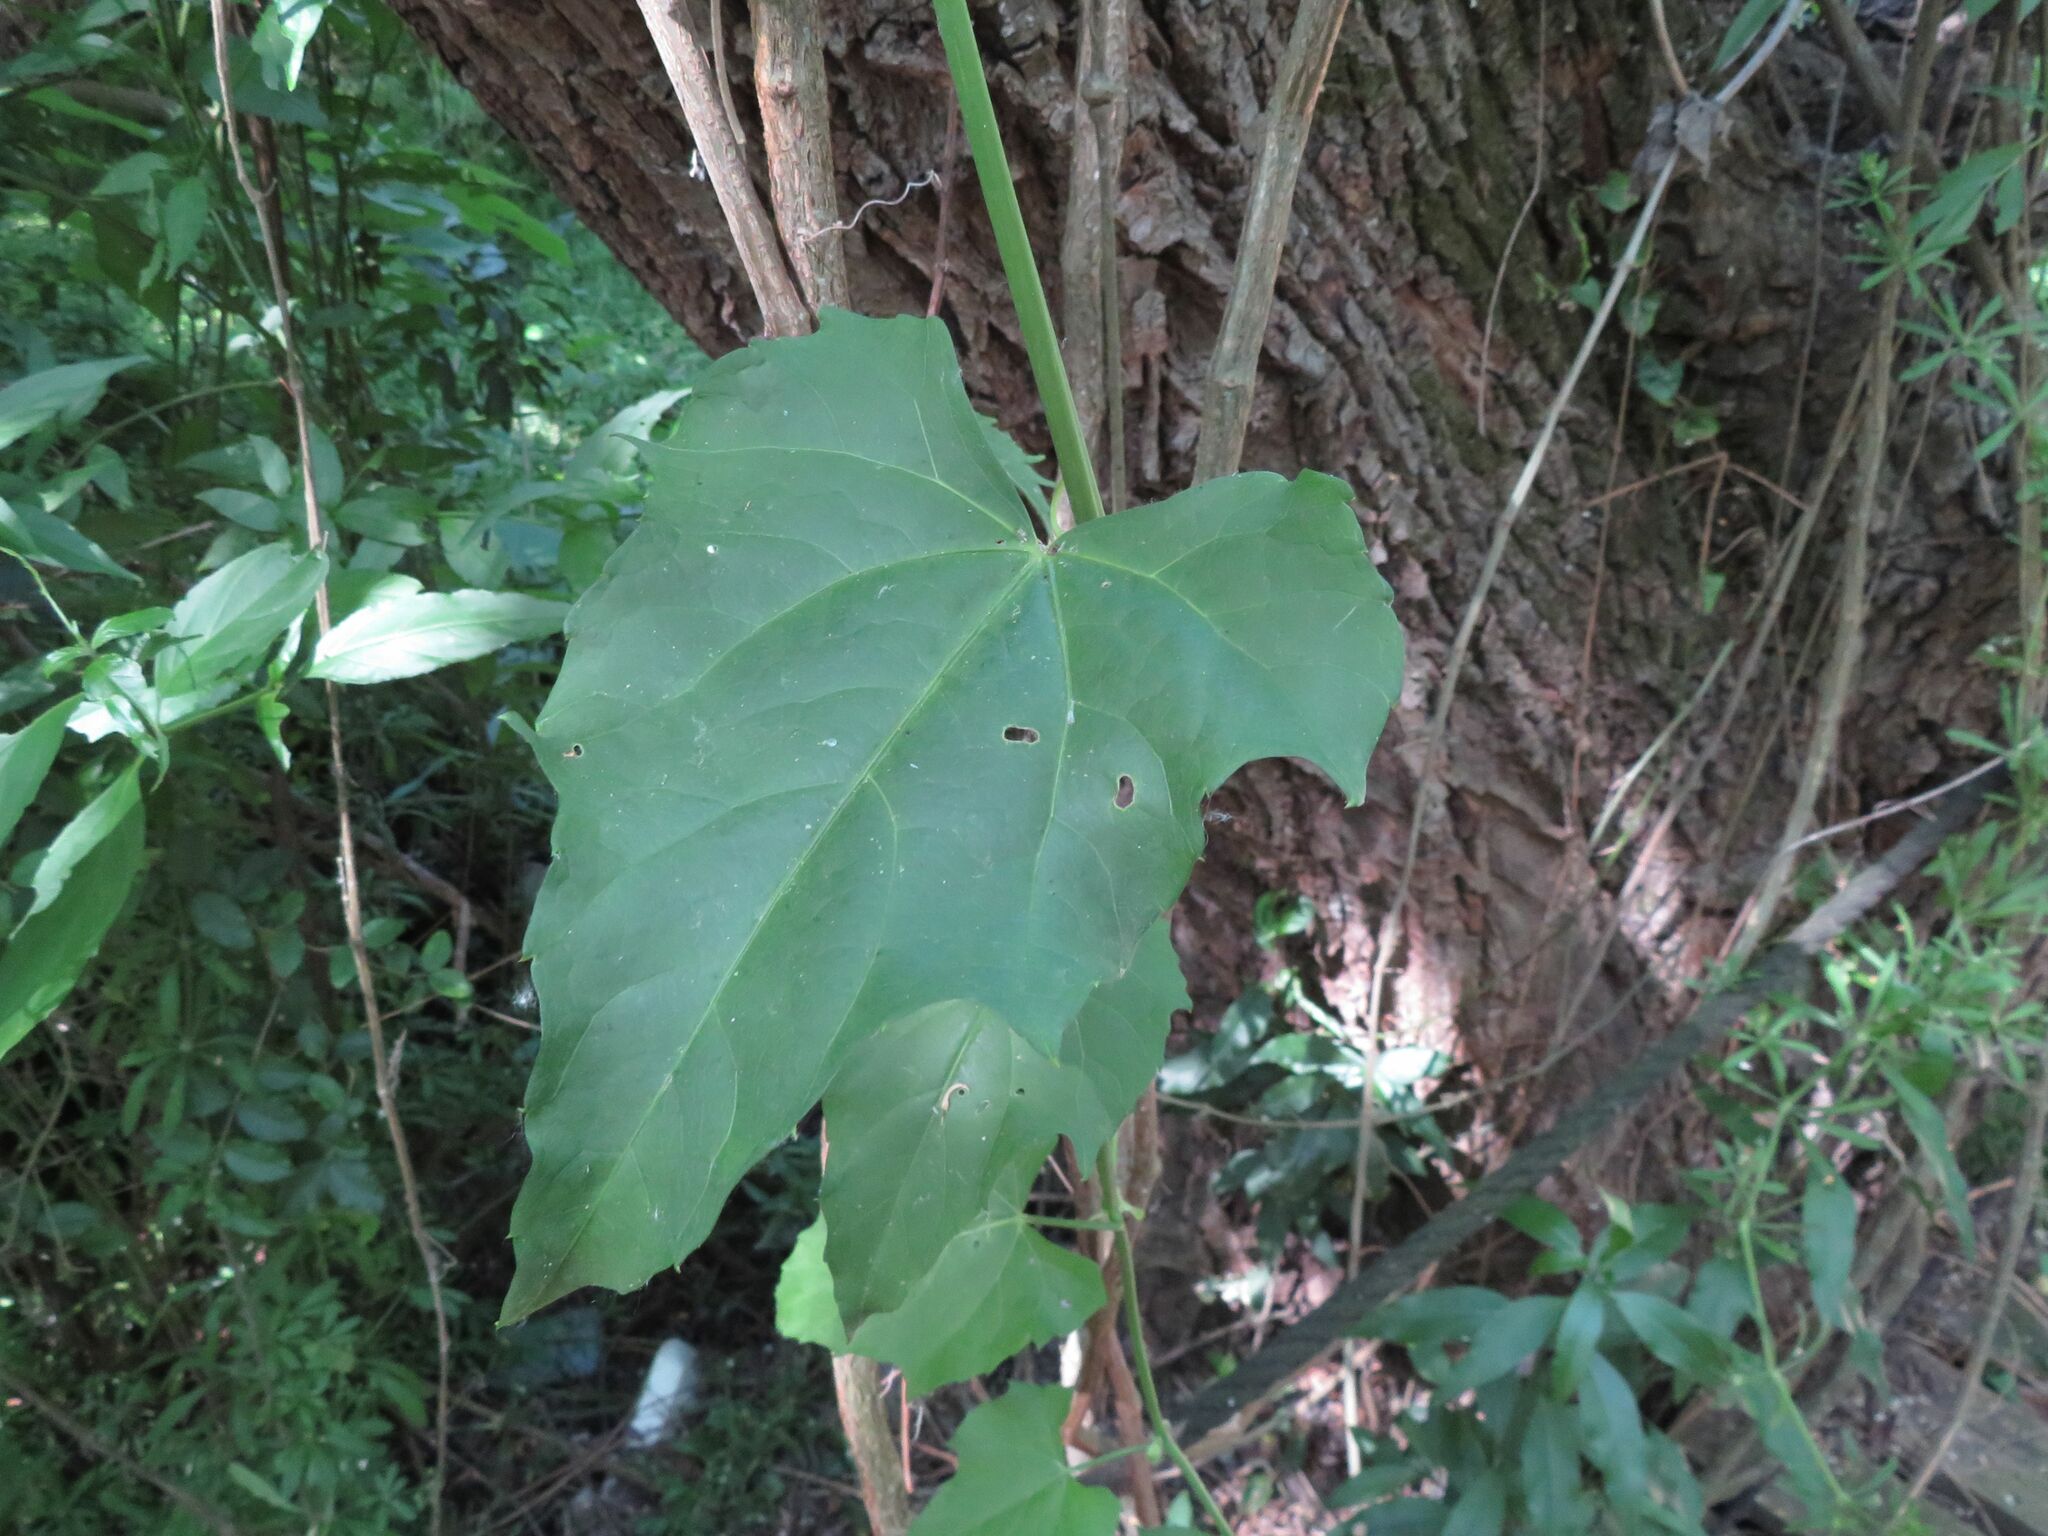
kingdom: Plantae
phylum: Tracheophyta
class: Magnoliopsida
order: Vitales
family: Vitaceae
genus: Cissus
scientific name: Cissus verticillata
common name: Princess vine
